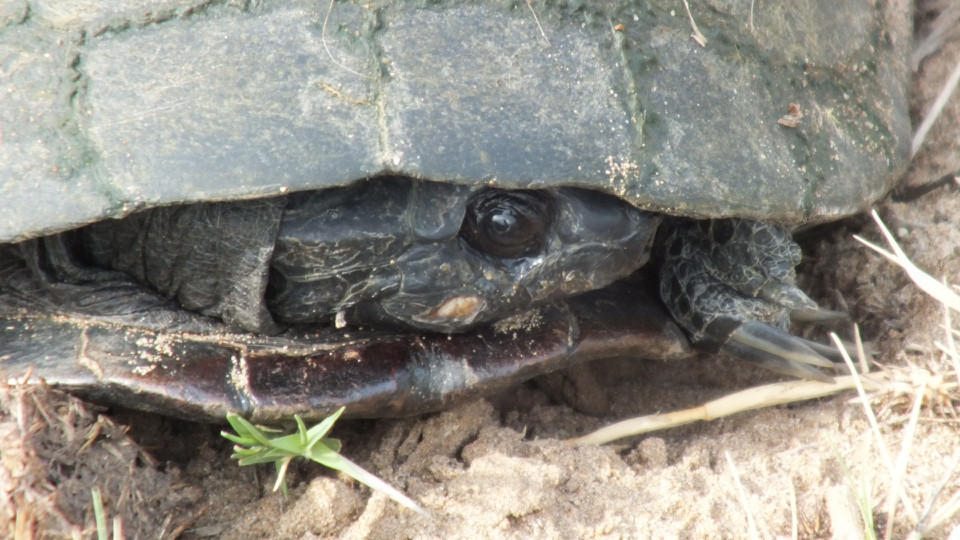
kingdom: Animalia
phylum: Chordata
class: Testudines
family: Pelomedusidae
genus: Pelusios
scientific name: Pelusios sinuatus
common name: Serrated hinged terrapin
